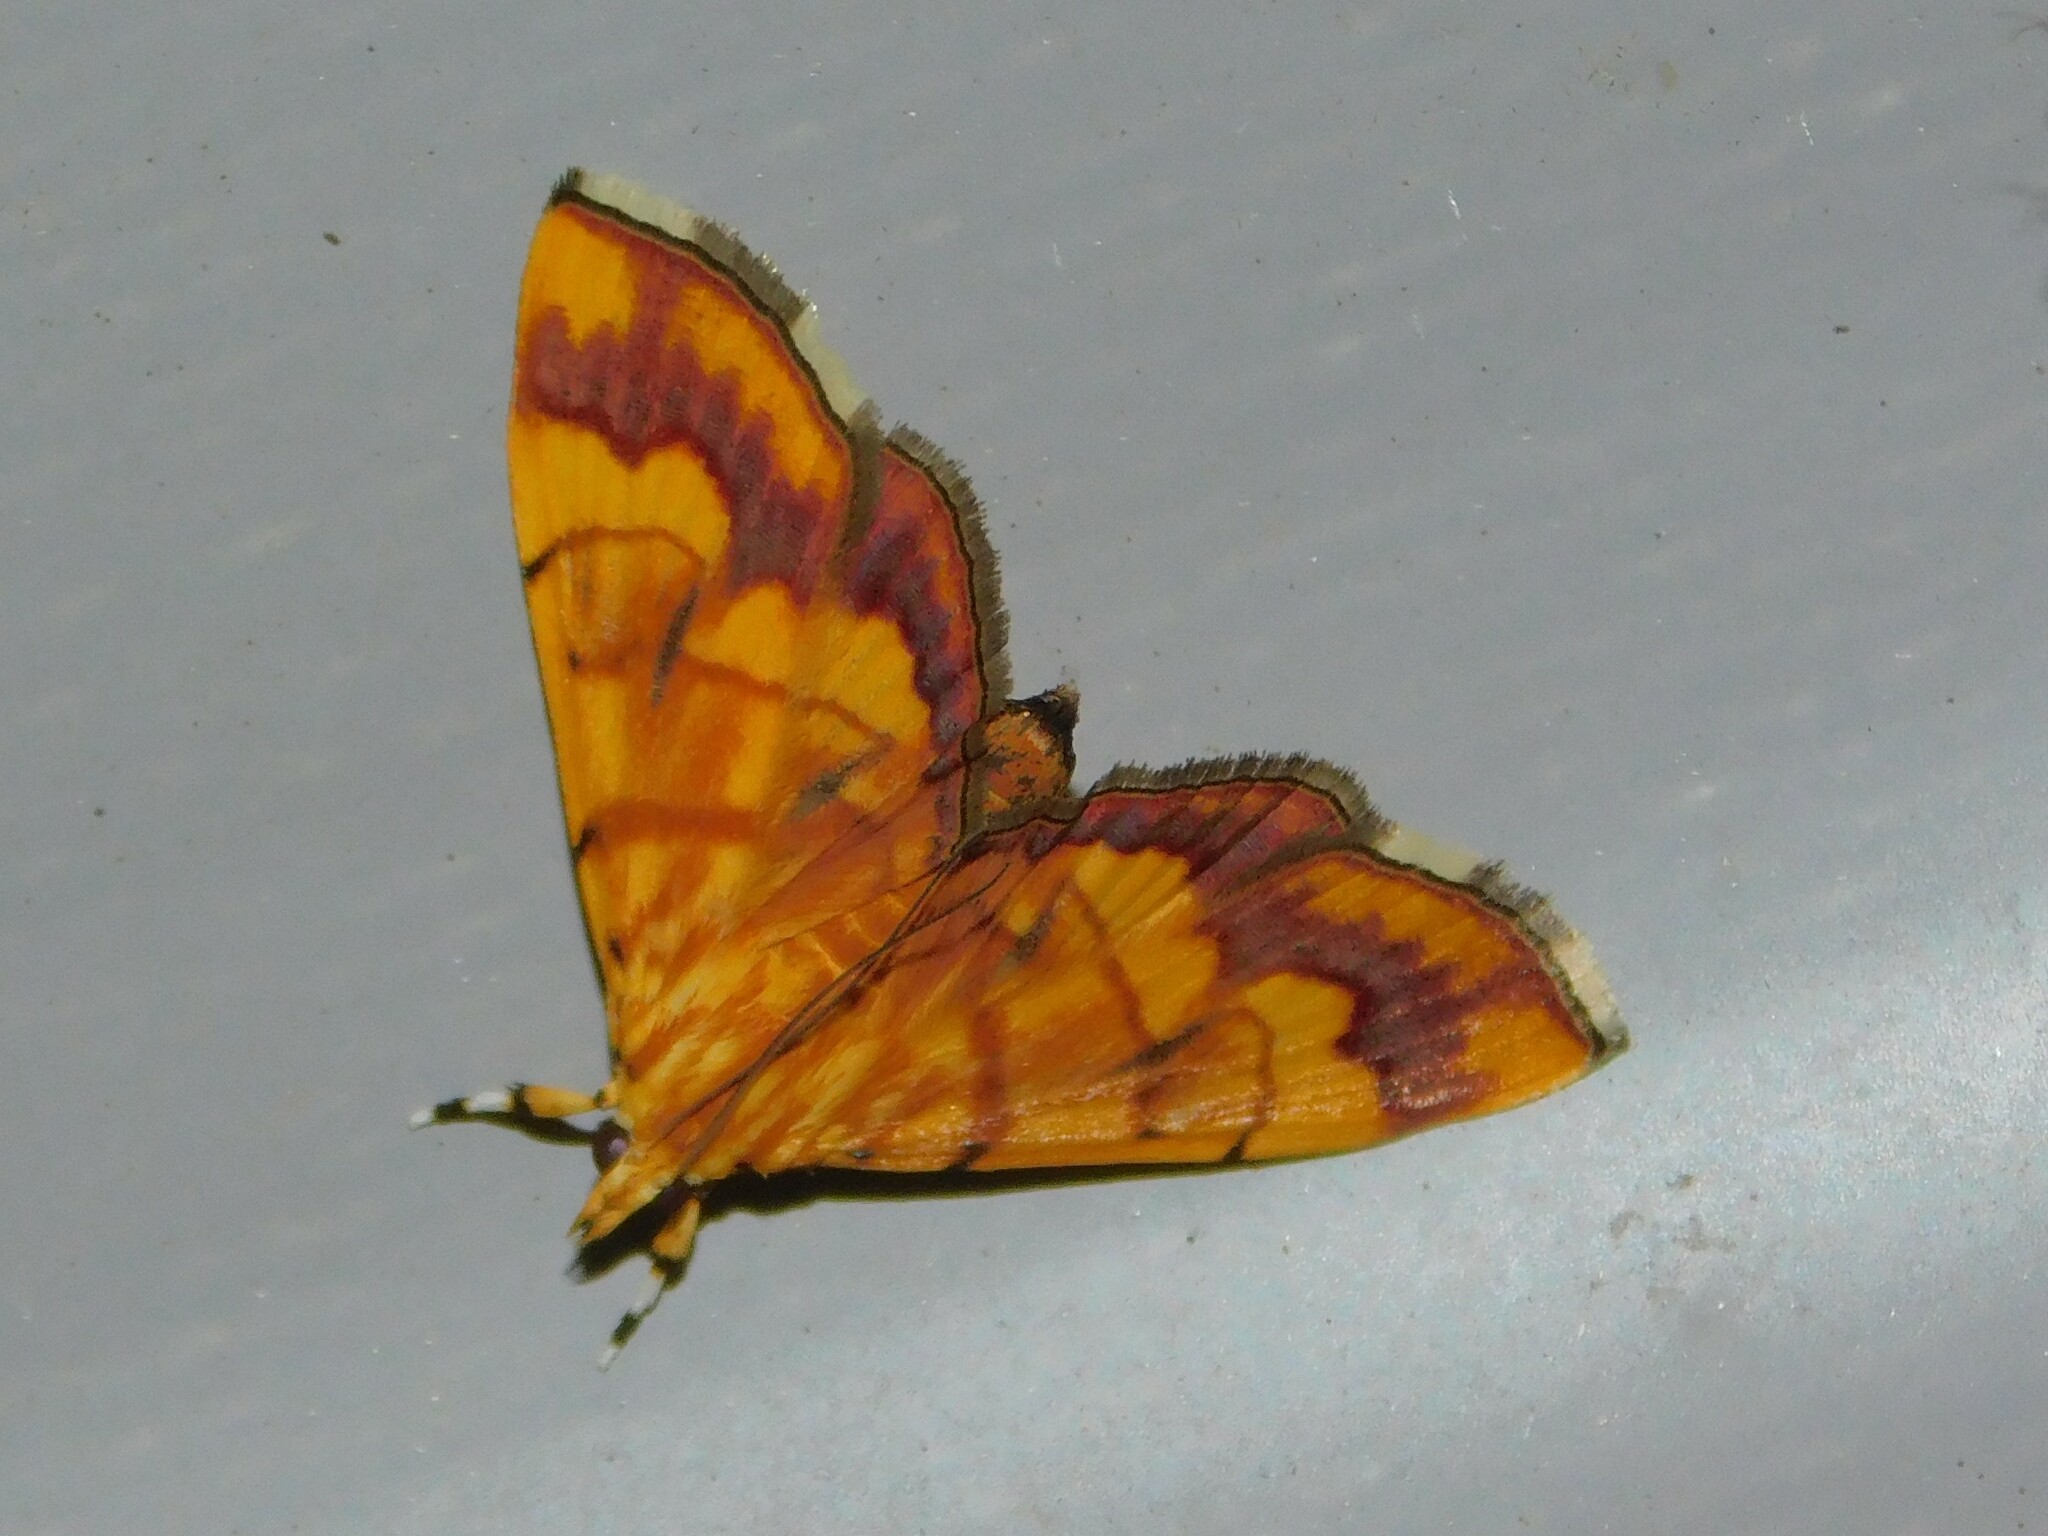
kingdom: Animalia
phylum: Arthropoda
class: Insecta
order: Lepidoptera
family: Crambidae
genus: Cryptosara
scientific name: Cryptosara caritalis
